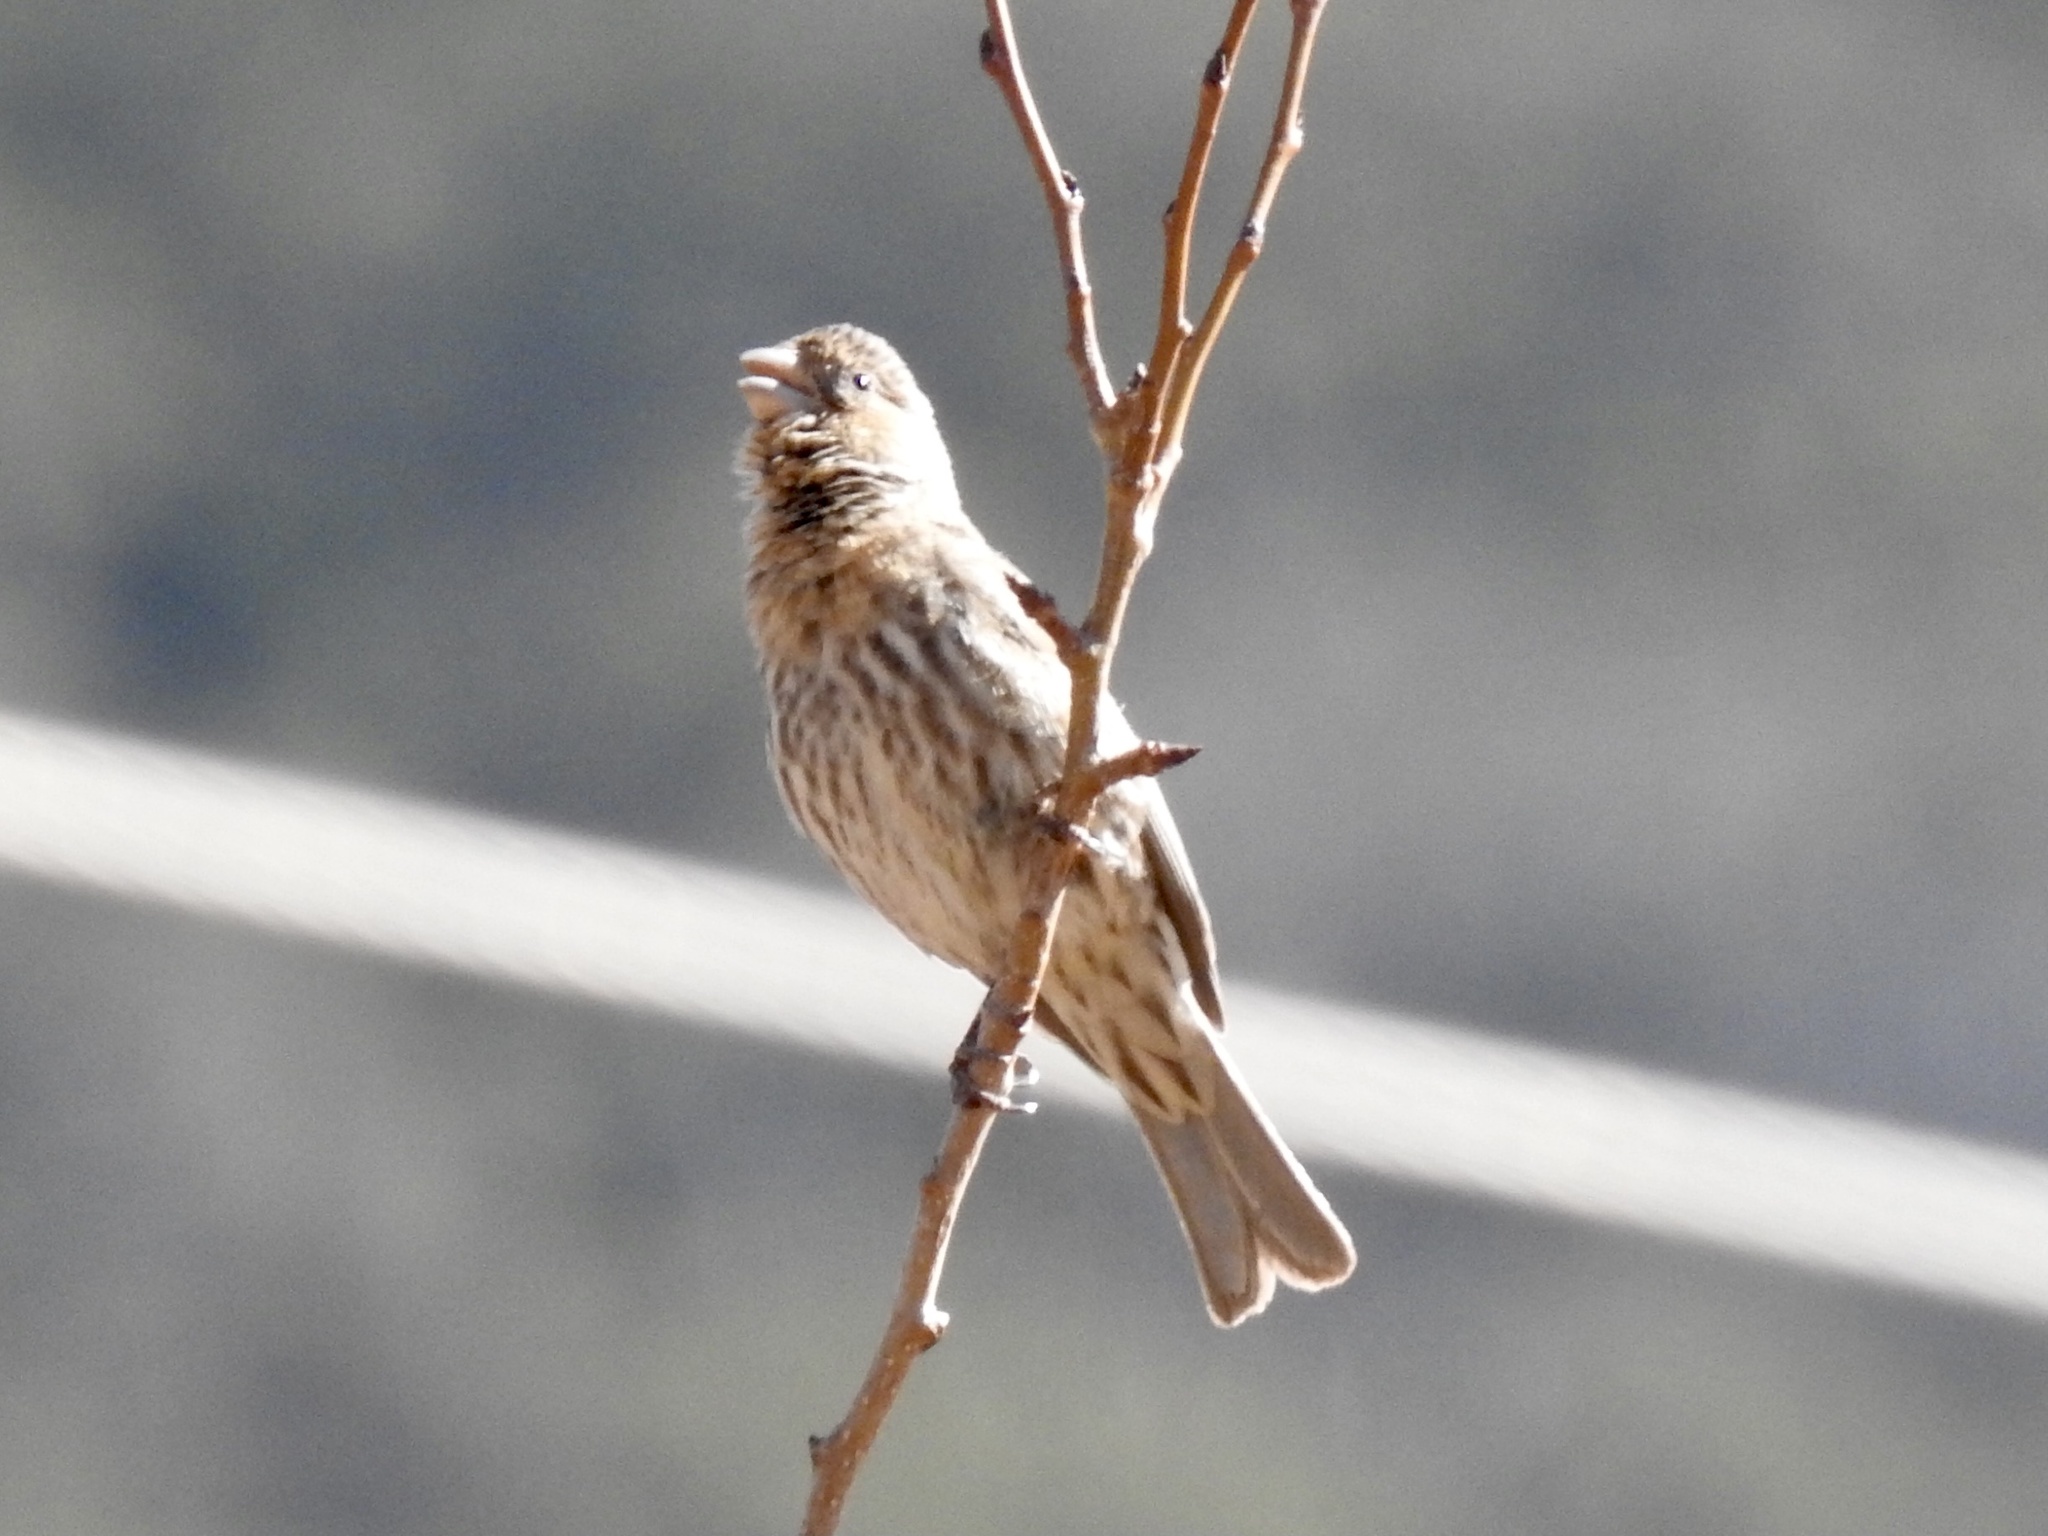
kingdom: Animalia
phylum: Chordata
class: Aves
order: Passeriformes
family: Fringillidae
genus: Haemorhous
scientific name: Haemorhous mexicanus
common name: House finch
